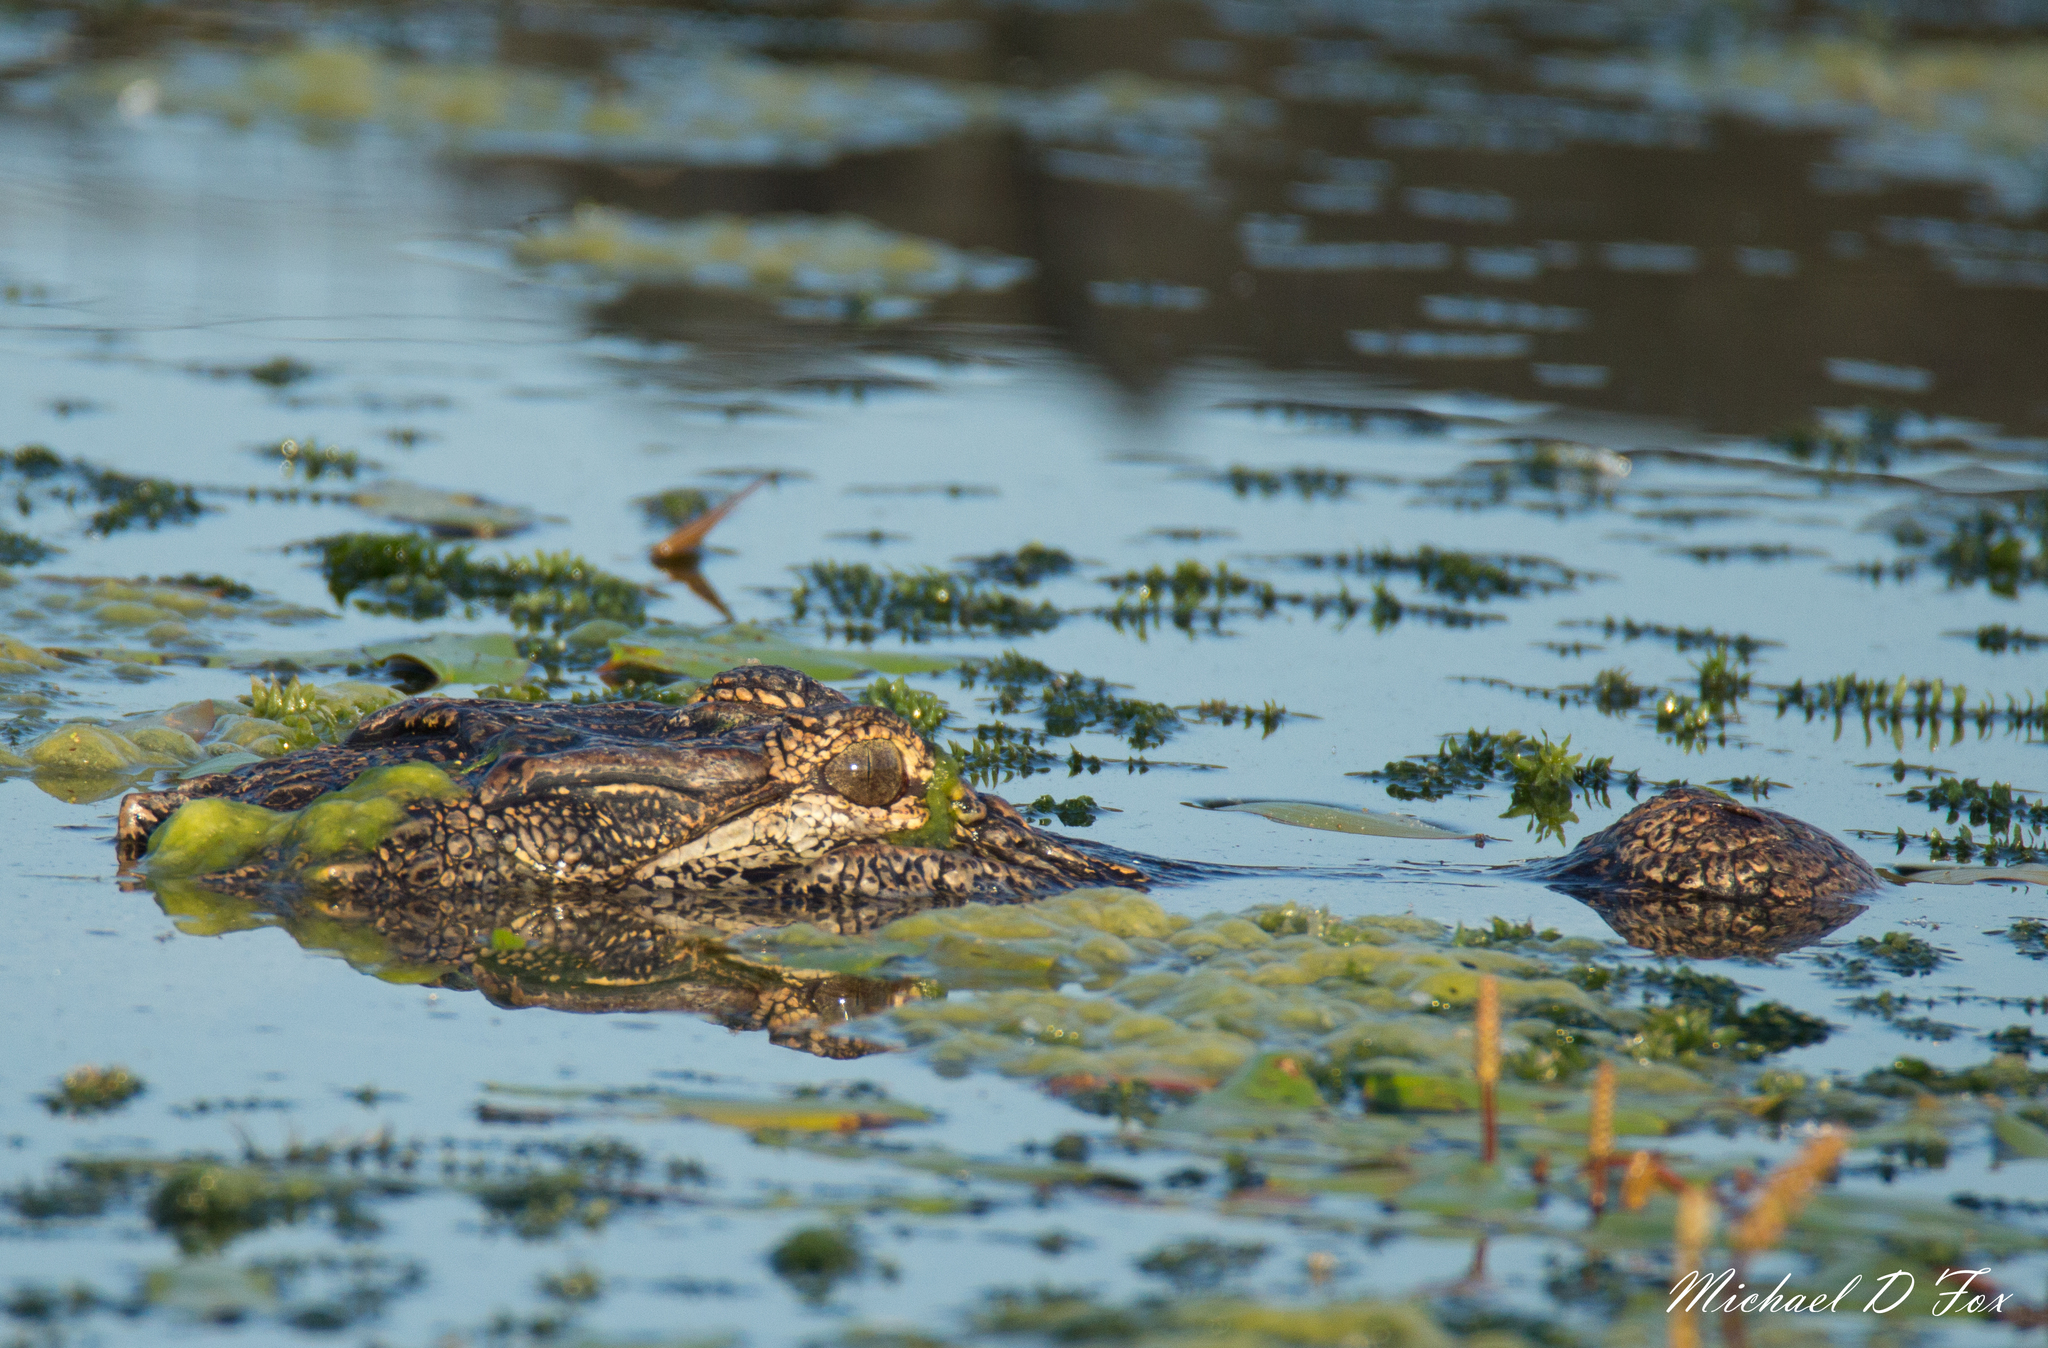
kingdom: Animalia
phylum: Chordata
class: Crocodylia
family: Alligatoridae
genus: Alligator
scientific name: Alligator mississippiensis
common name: American alligator
